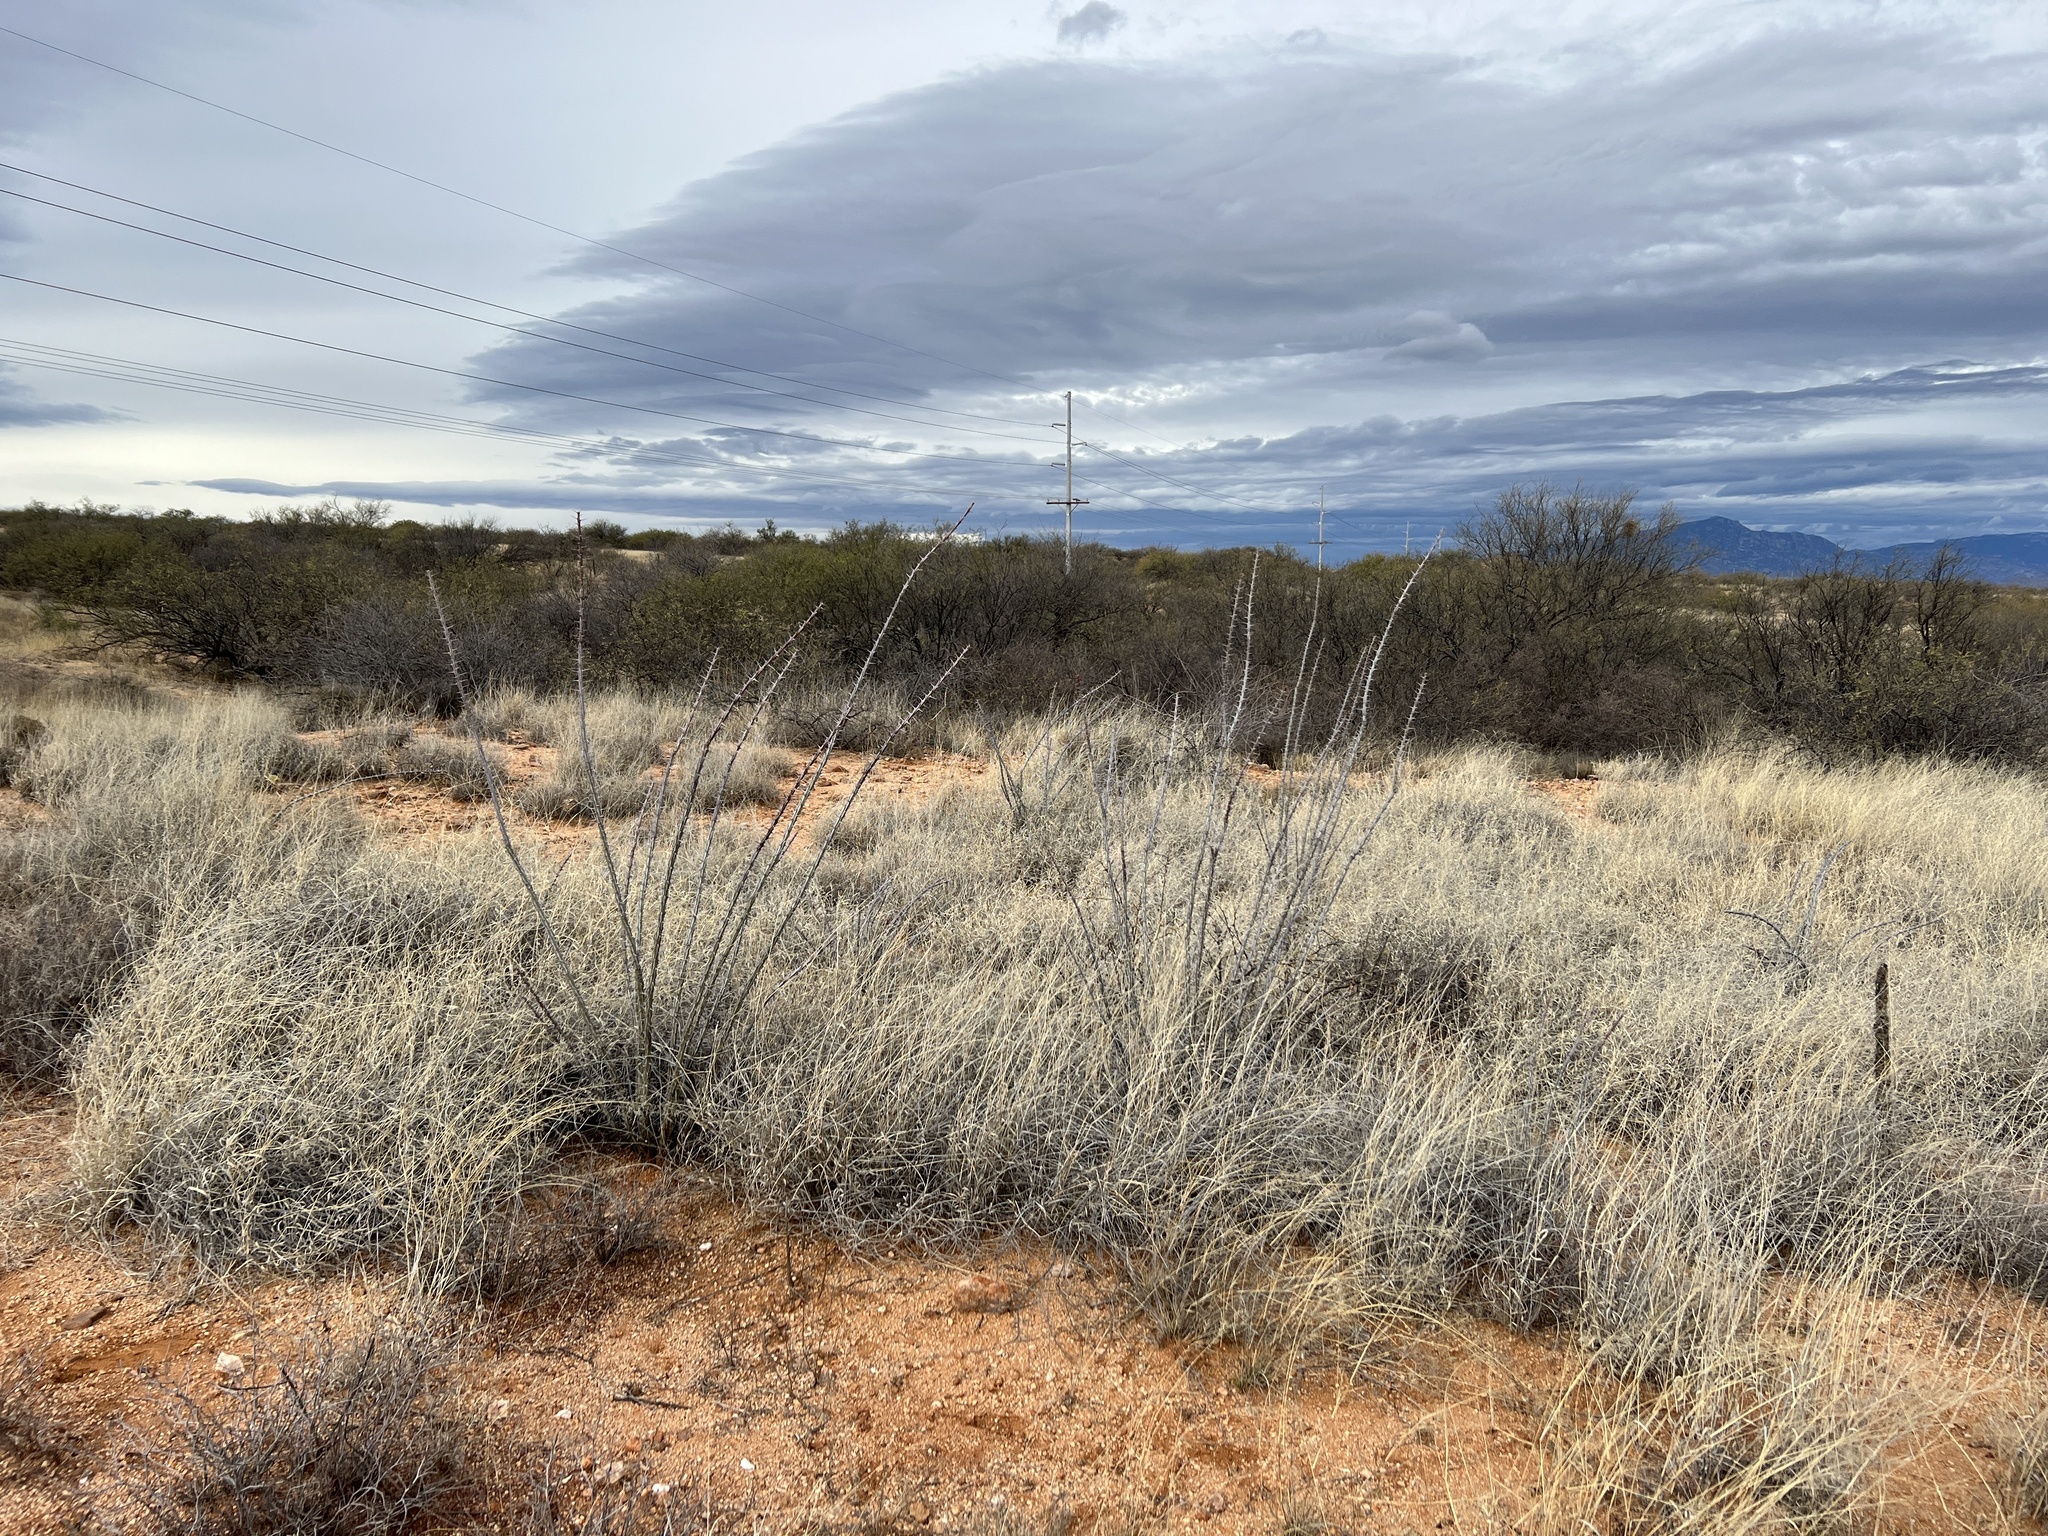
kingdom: Plantae
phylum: Tracheophyta
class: Magnoliopsida
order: Ericales
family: Fouquieriaceae
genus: Fouquieria
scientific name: Fouquieria splendens
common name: Vine-cactus
